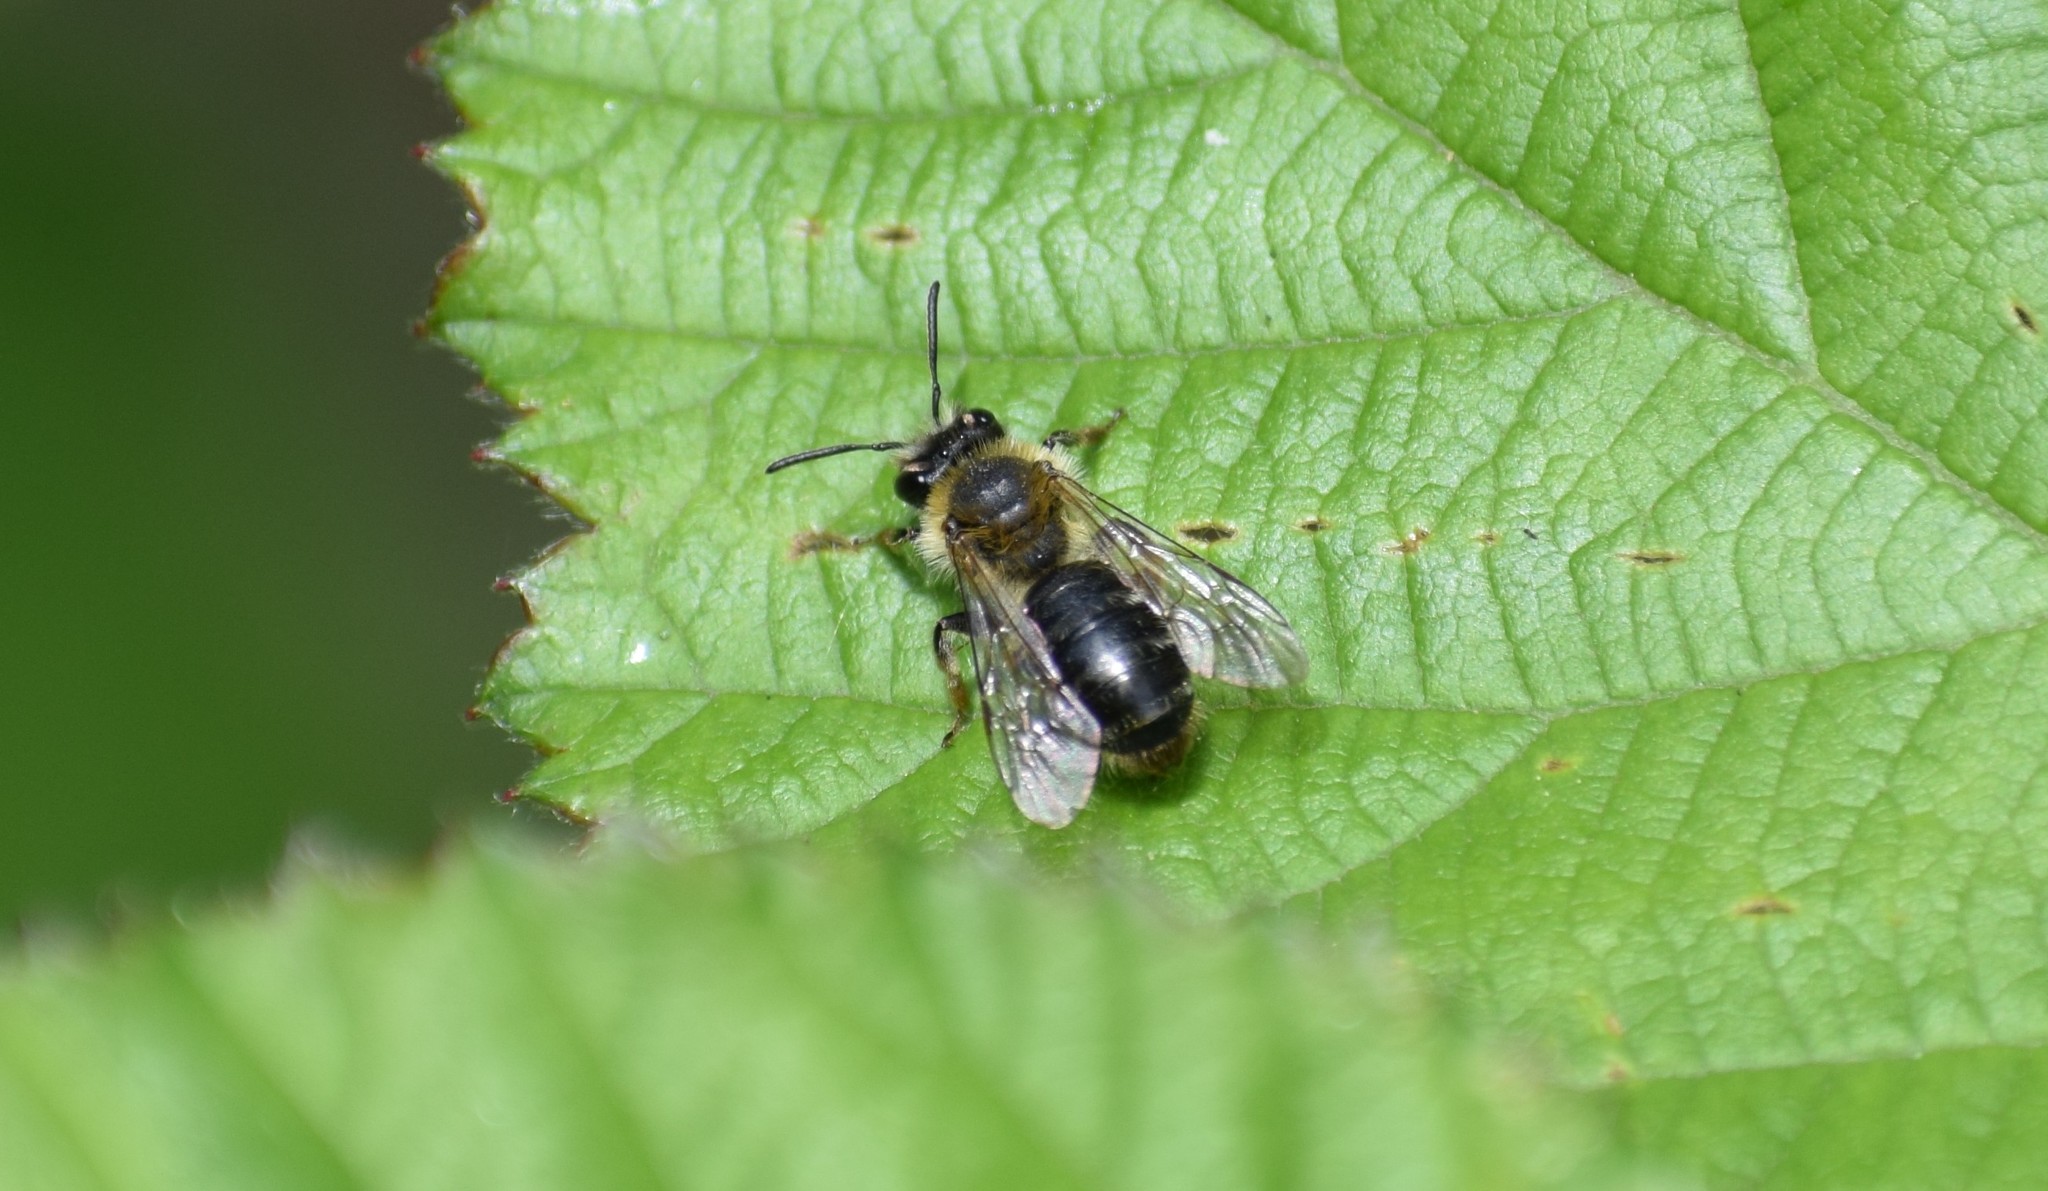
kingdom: Animalia
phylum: Arthropoda
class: Insecta
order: Hymenoptera
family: Andrenidae
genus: Andrena
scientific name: Andrena
